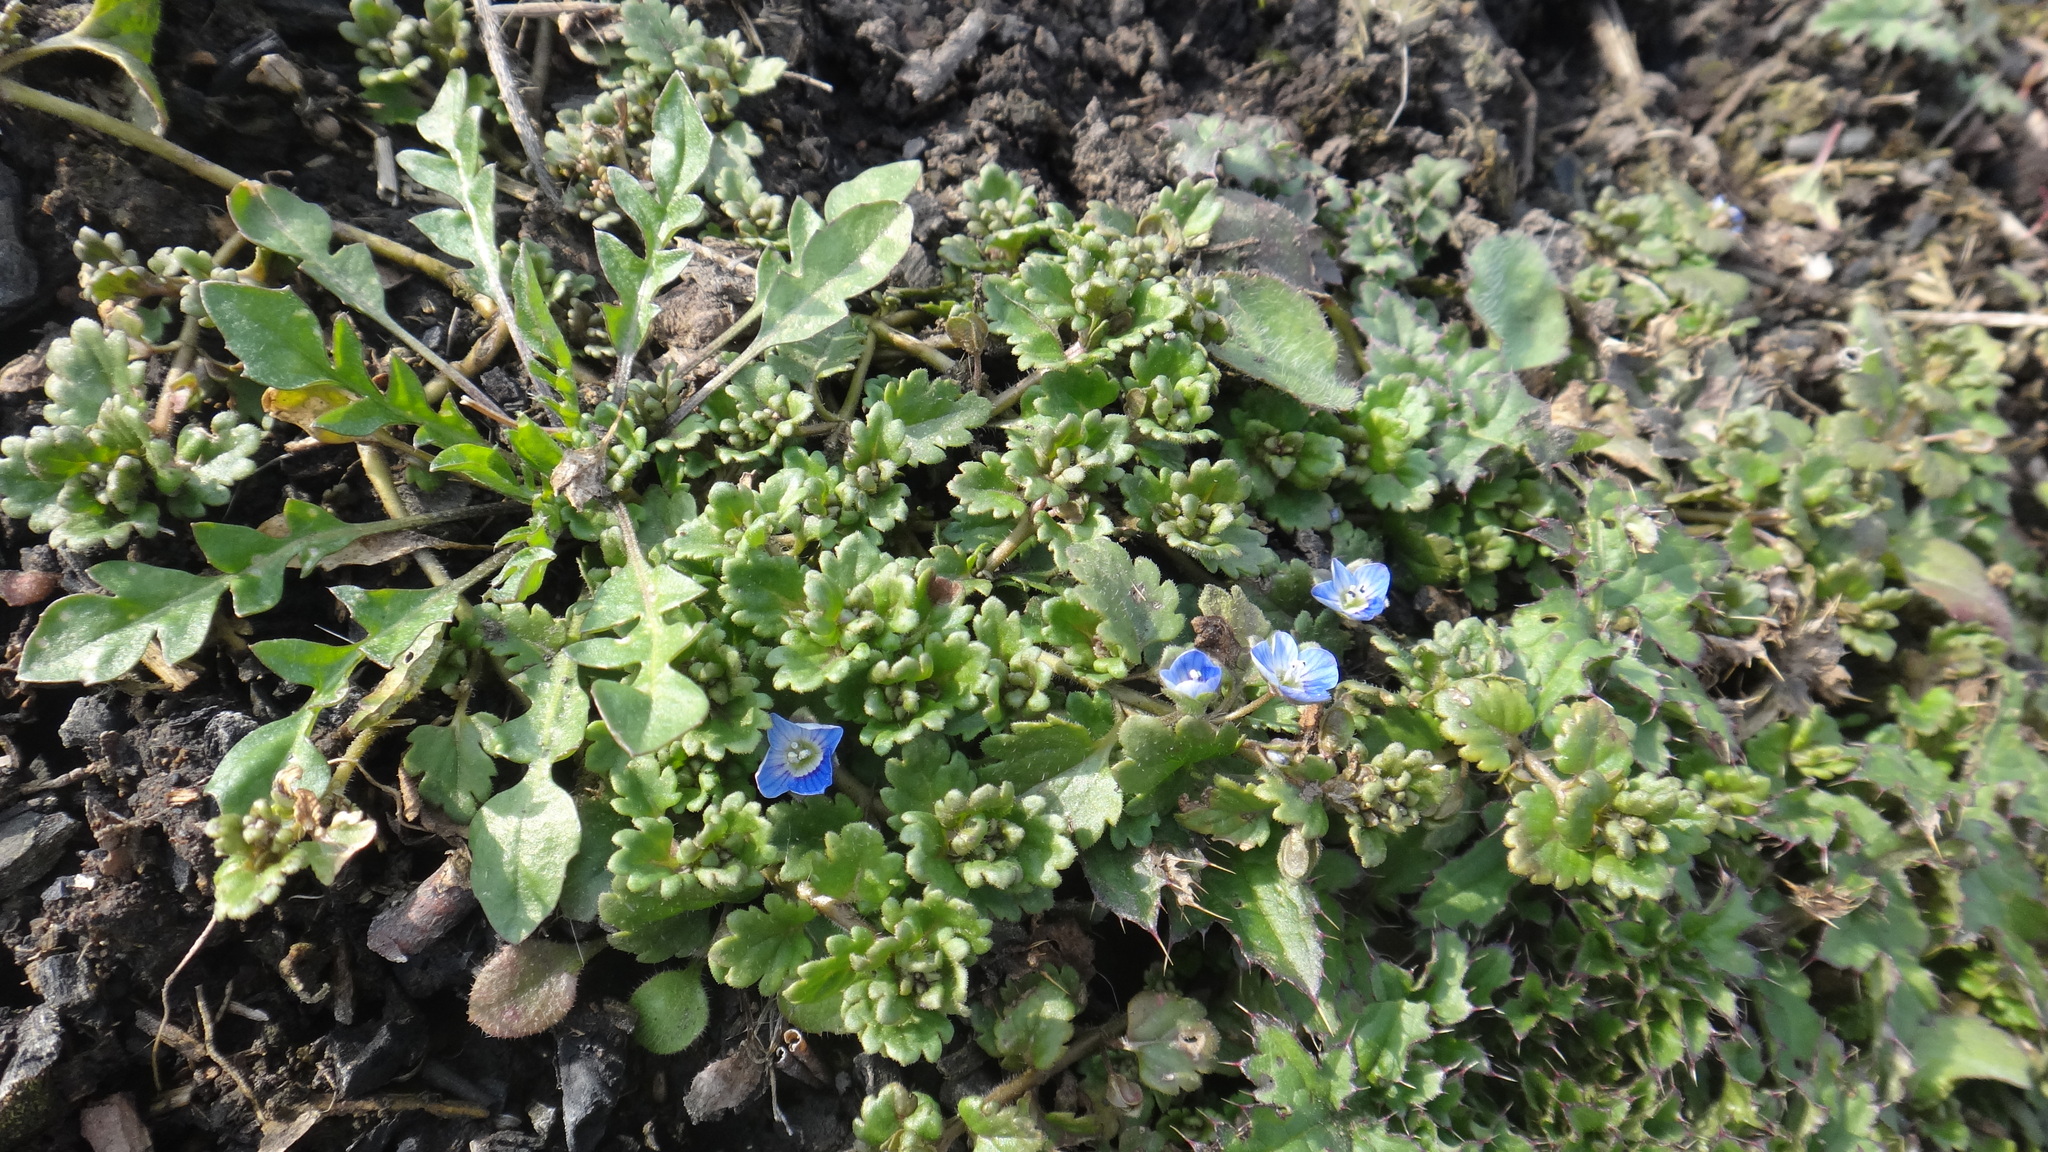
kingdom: Plantae
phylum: Tracheophyta
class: Magnoliopsida
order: Lamiales
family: Plantaginaceae
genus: Veronica
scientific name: Veronica polita
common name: Grey field-speedwell
